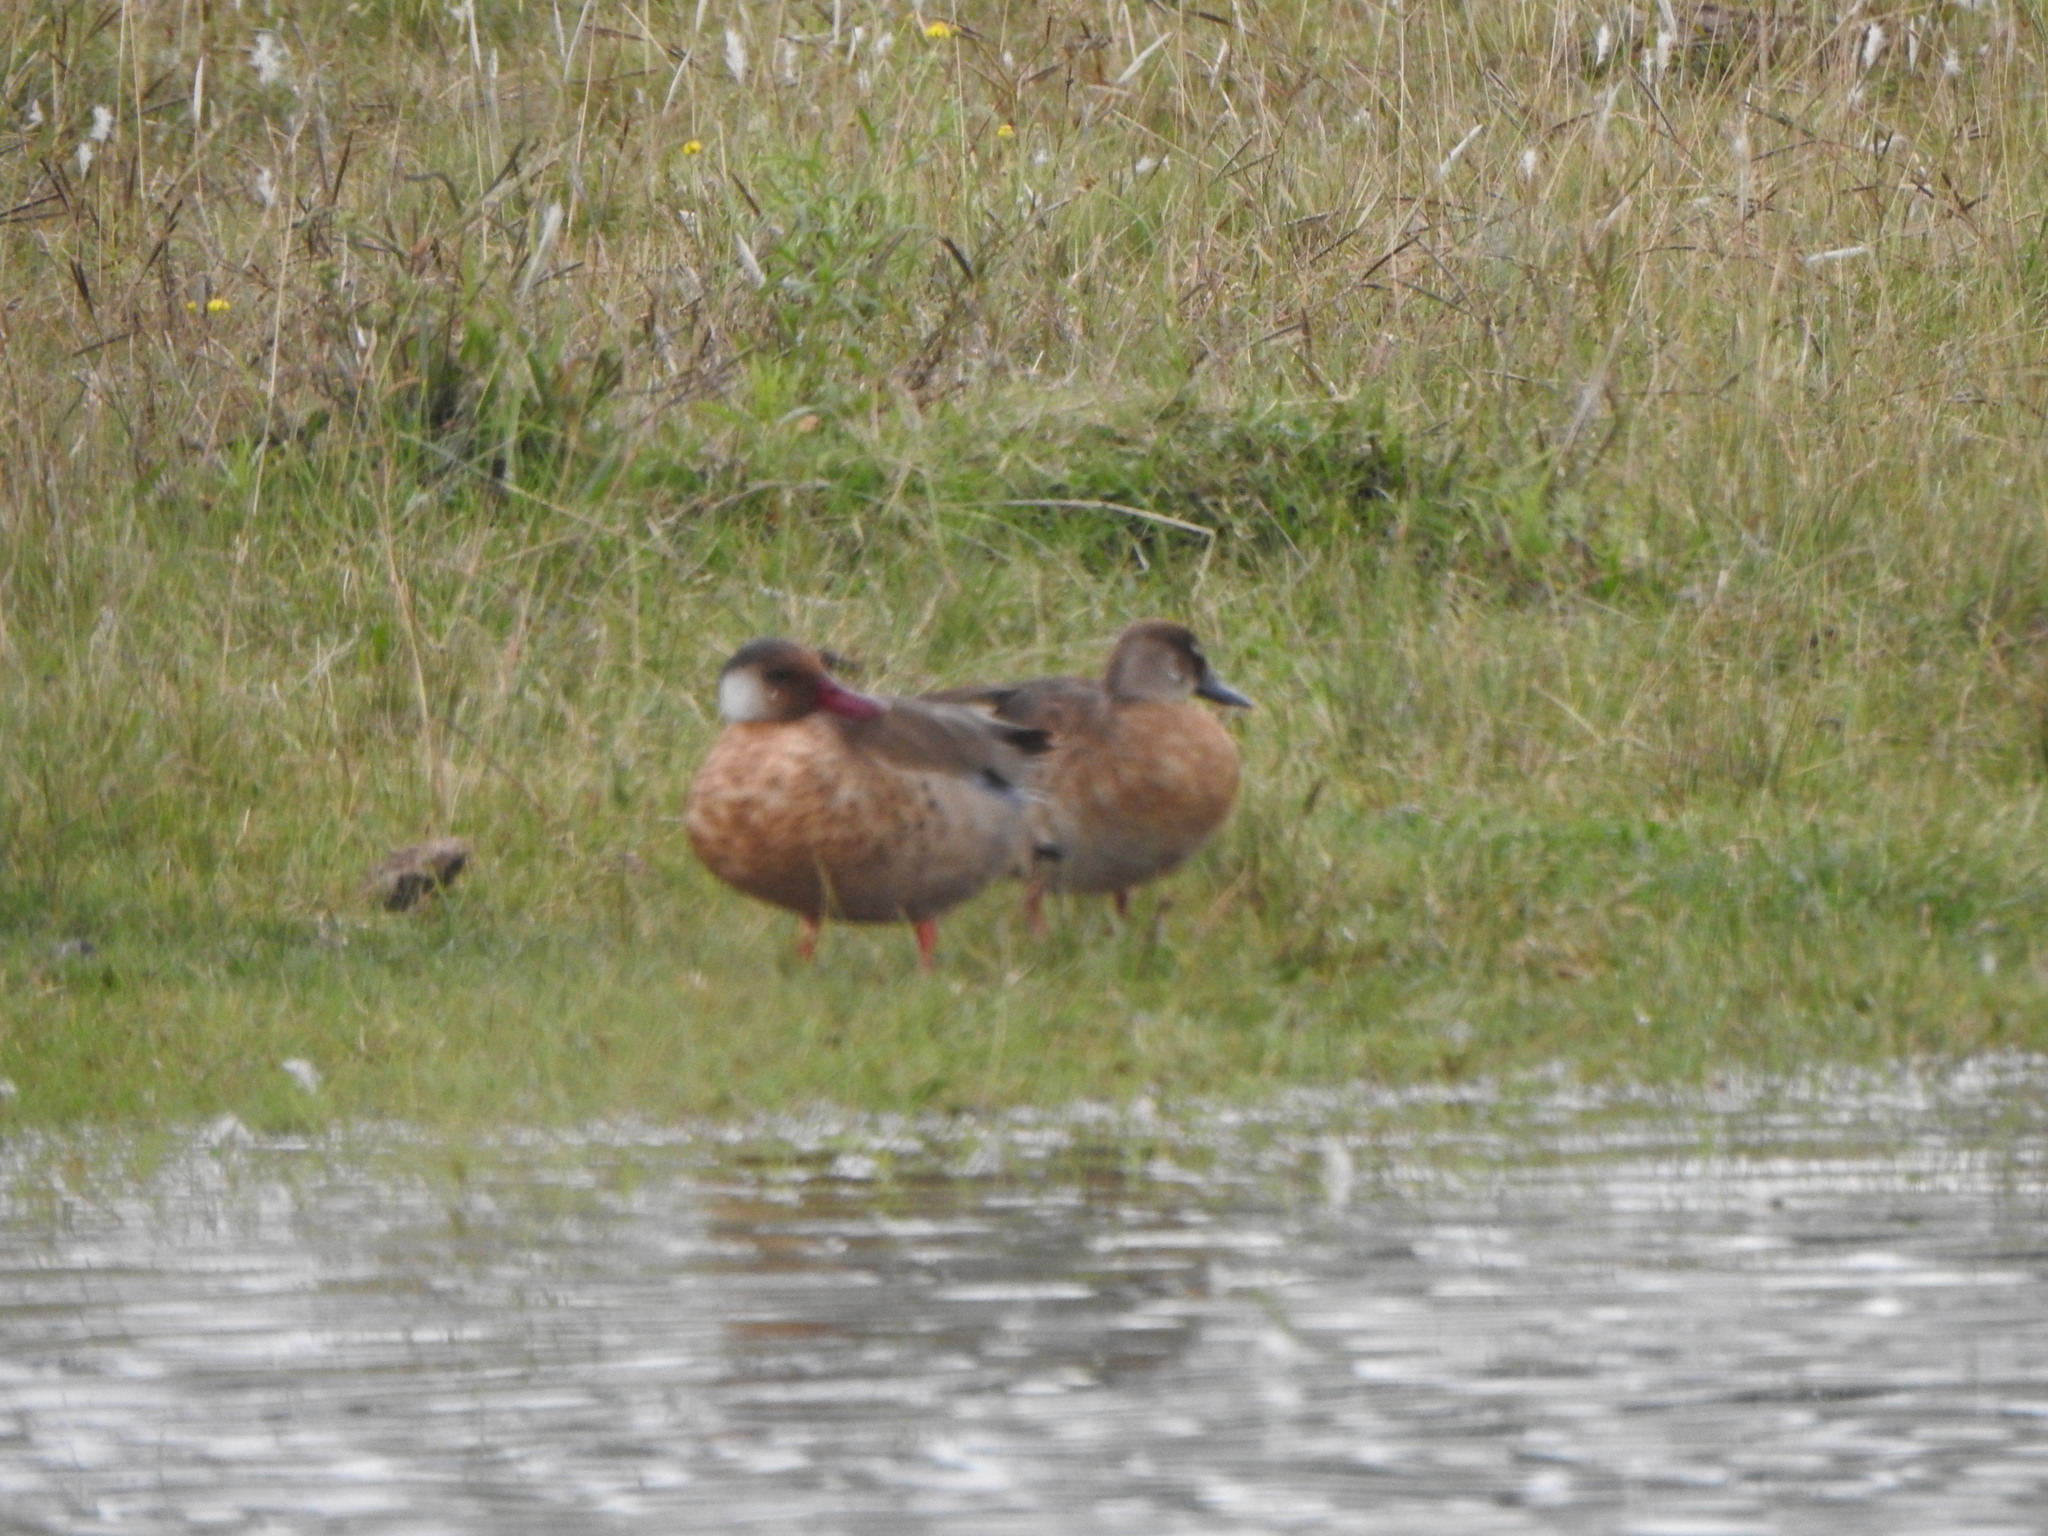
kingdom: Animalia
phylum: Chordata
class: Aves
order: Anseriformes
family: Anatidae
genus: Amazonetta
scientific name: Amazonetta brasiliensis
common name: Brazilian teal
